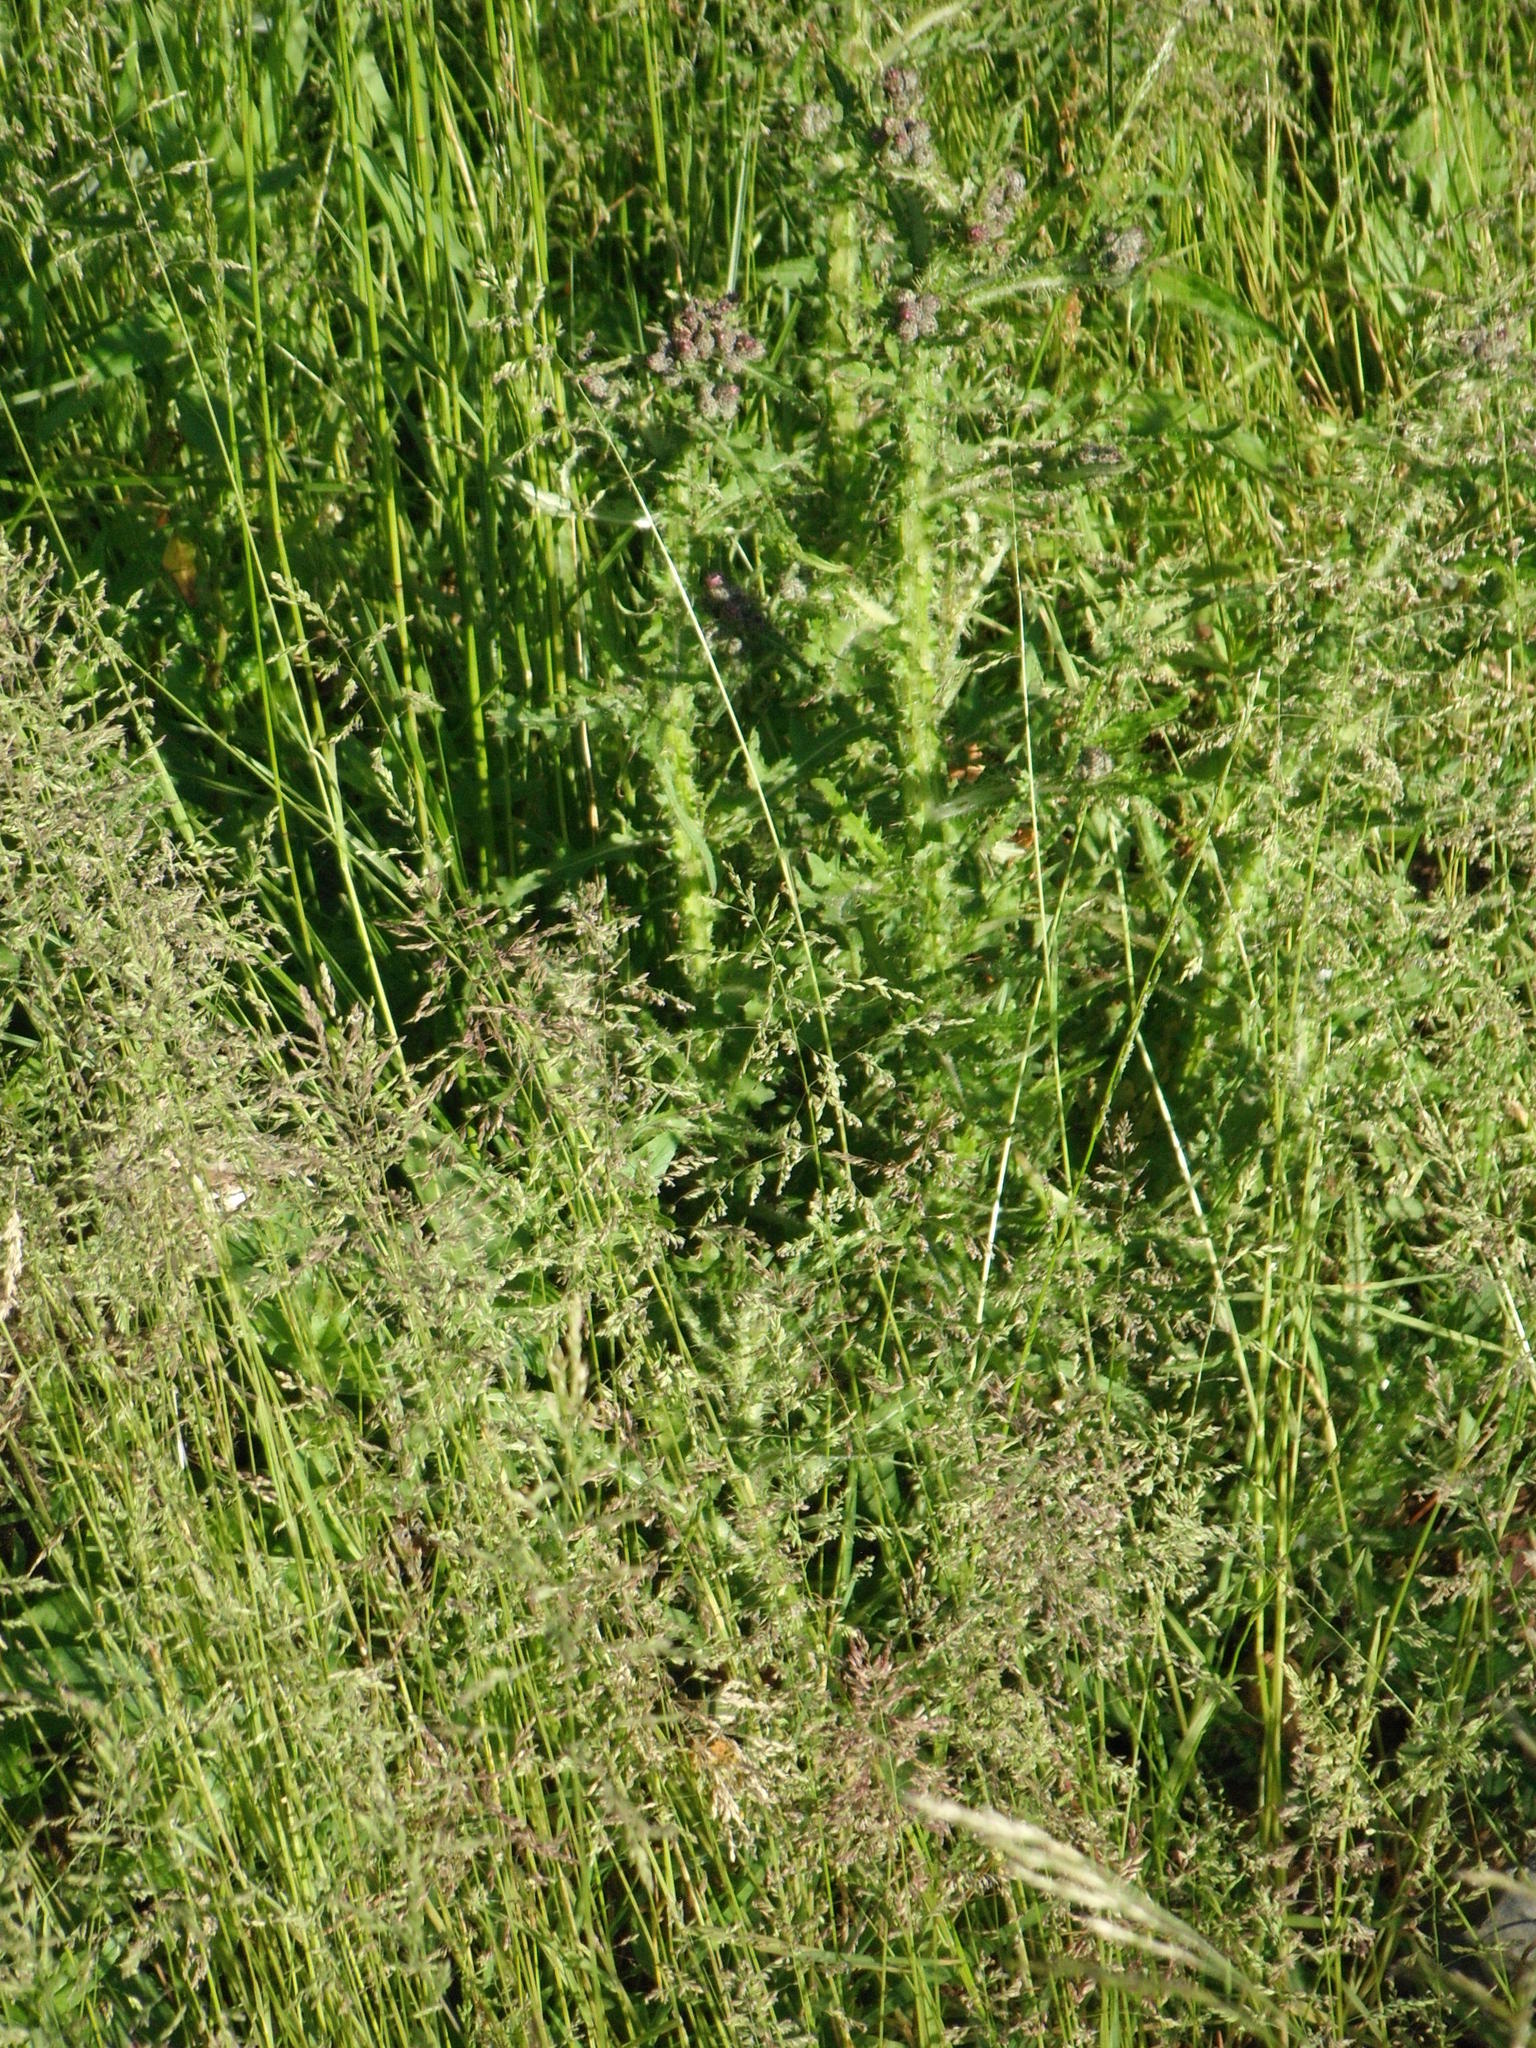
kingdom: Plantae
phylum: Tracheophyta
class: Magnoliopsida
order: Asterales
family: Asteraceae
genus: Cirsium
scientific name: Cirsium palustre
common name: Marsh thistle
